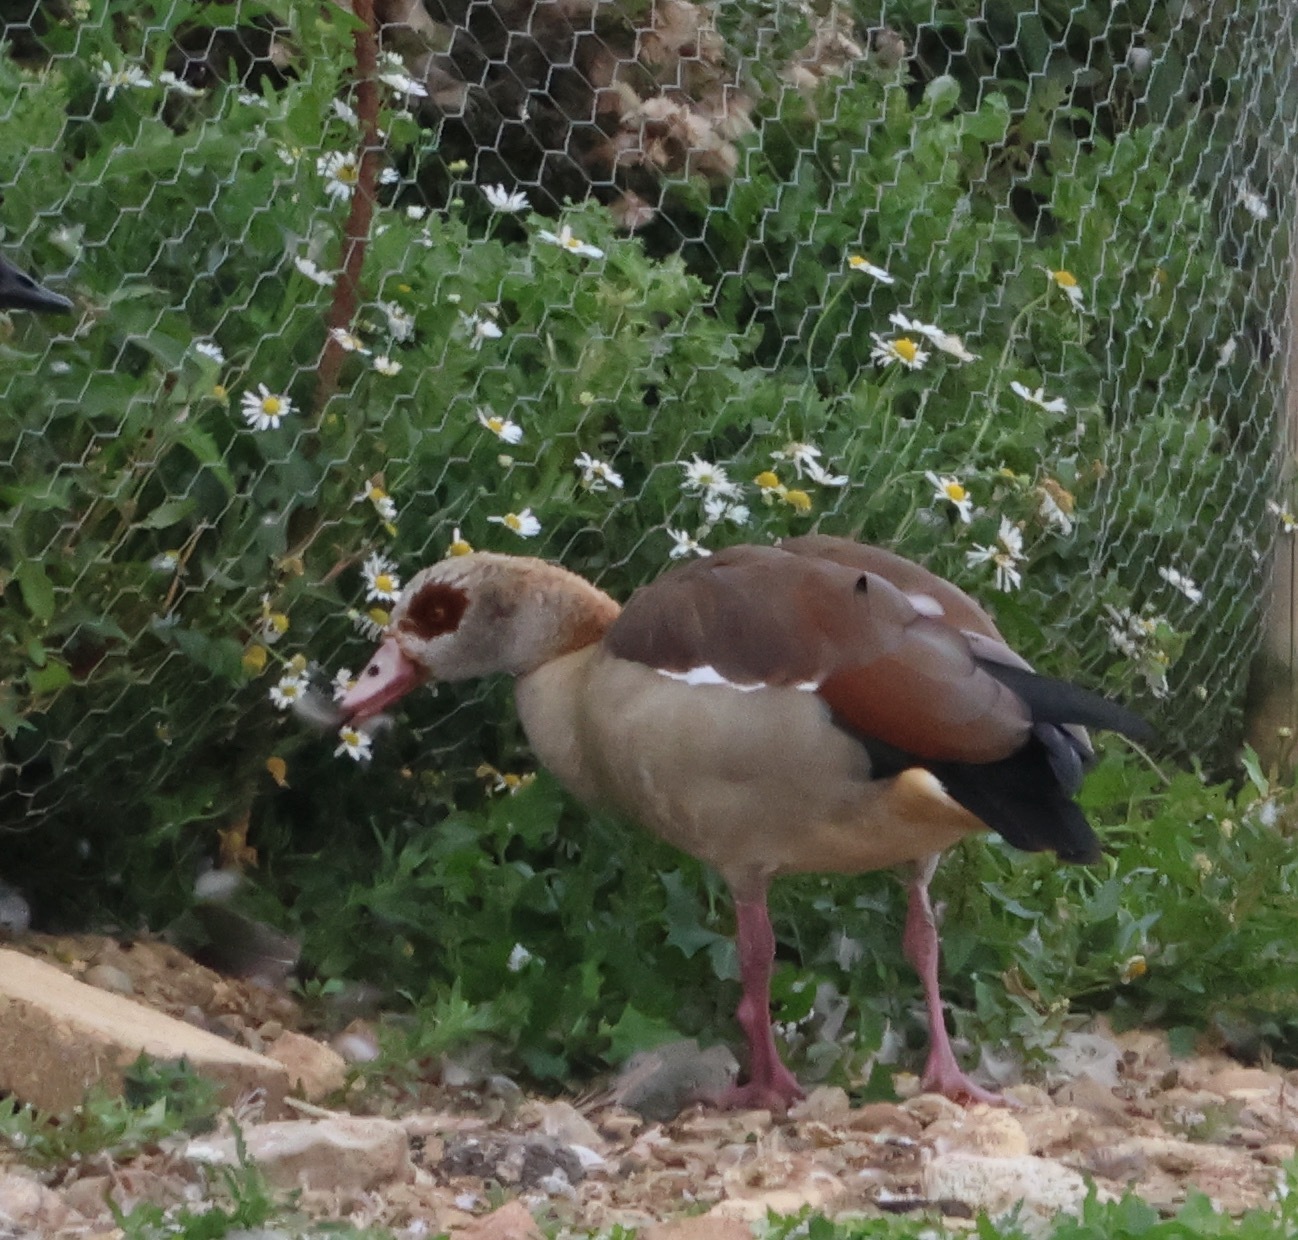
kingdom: Animalia
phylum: Chordata
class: Aves
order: Anseriformes
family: Anatidae
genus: Alopochen
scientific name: Alopochen aegyptiaca
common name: Egyptian goose
